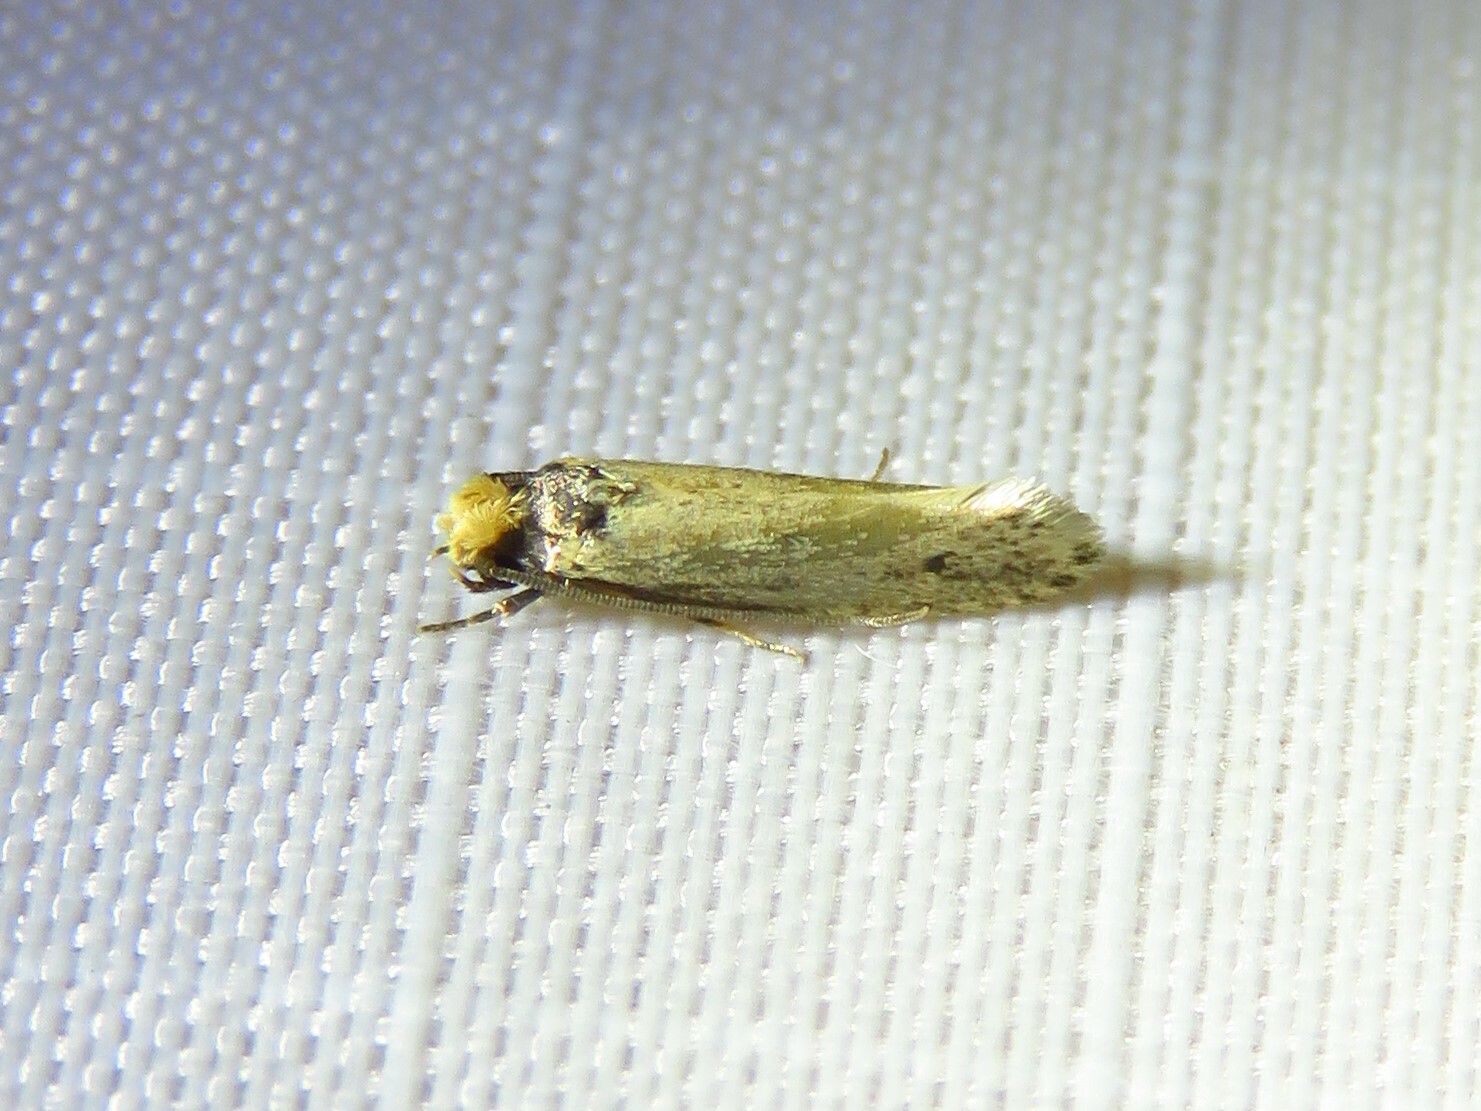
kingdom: Animalia
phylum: Arthropoda
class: Insecta
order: Lepidoptera
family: Tineidae
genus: Tinea
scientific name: Tinea apicimaculella
